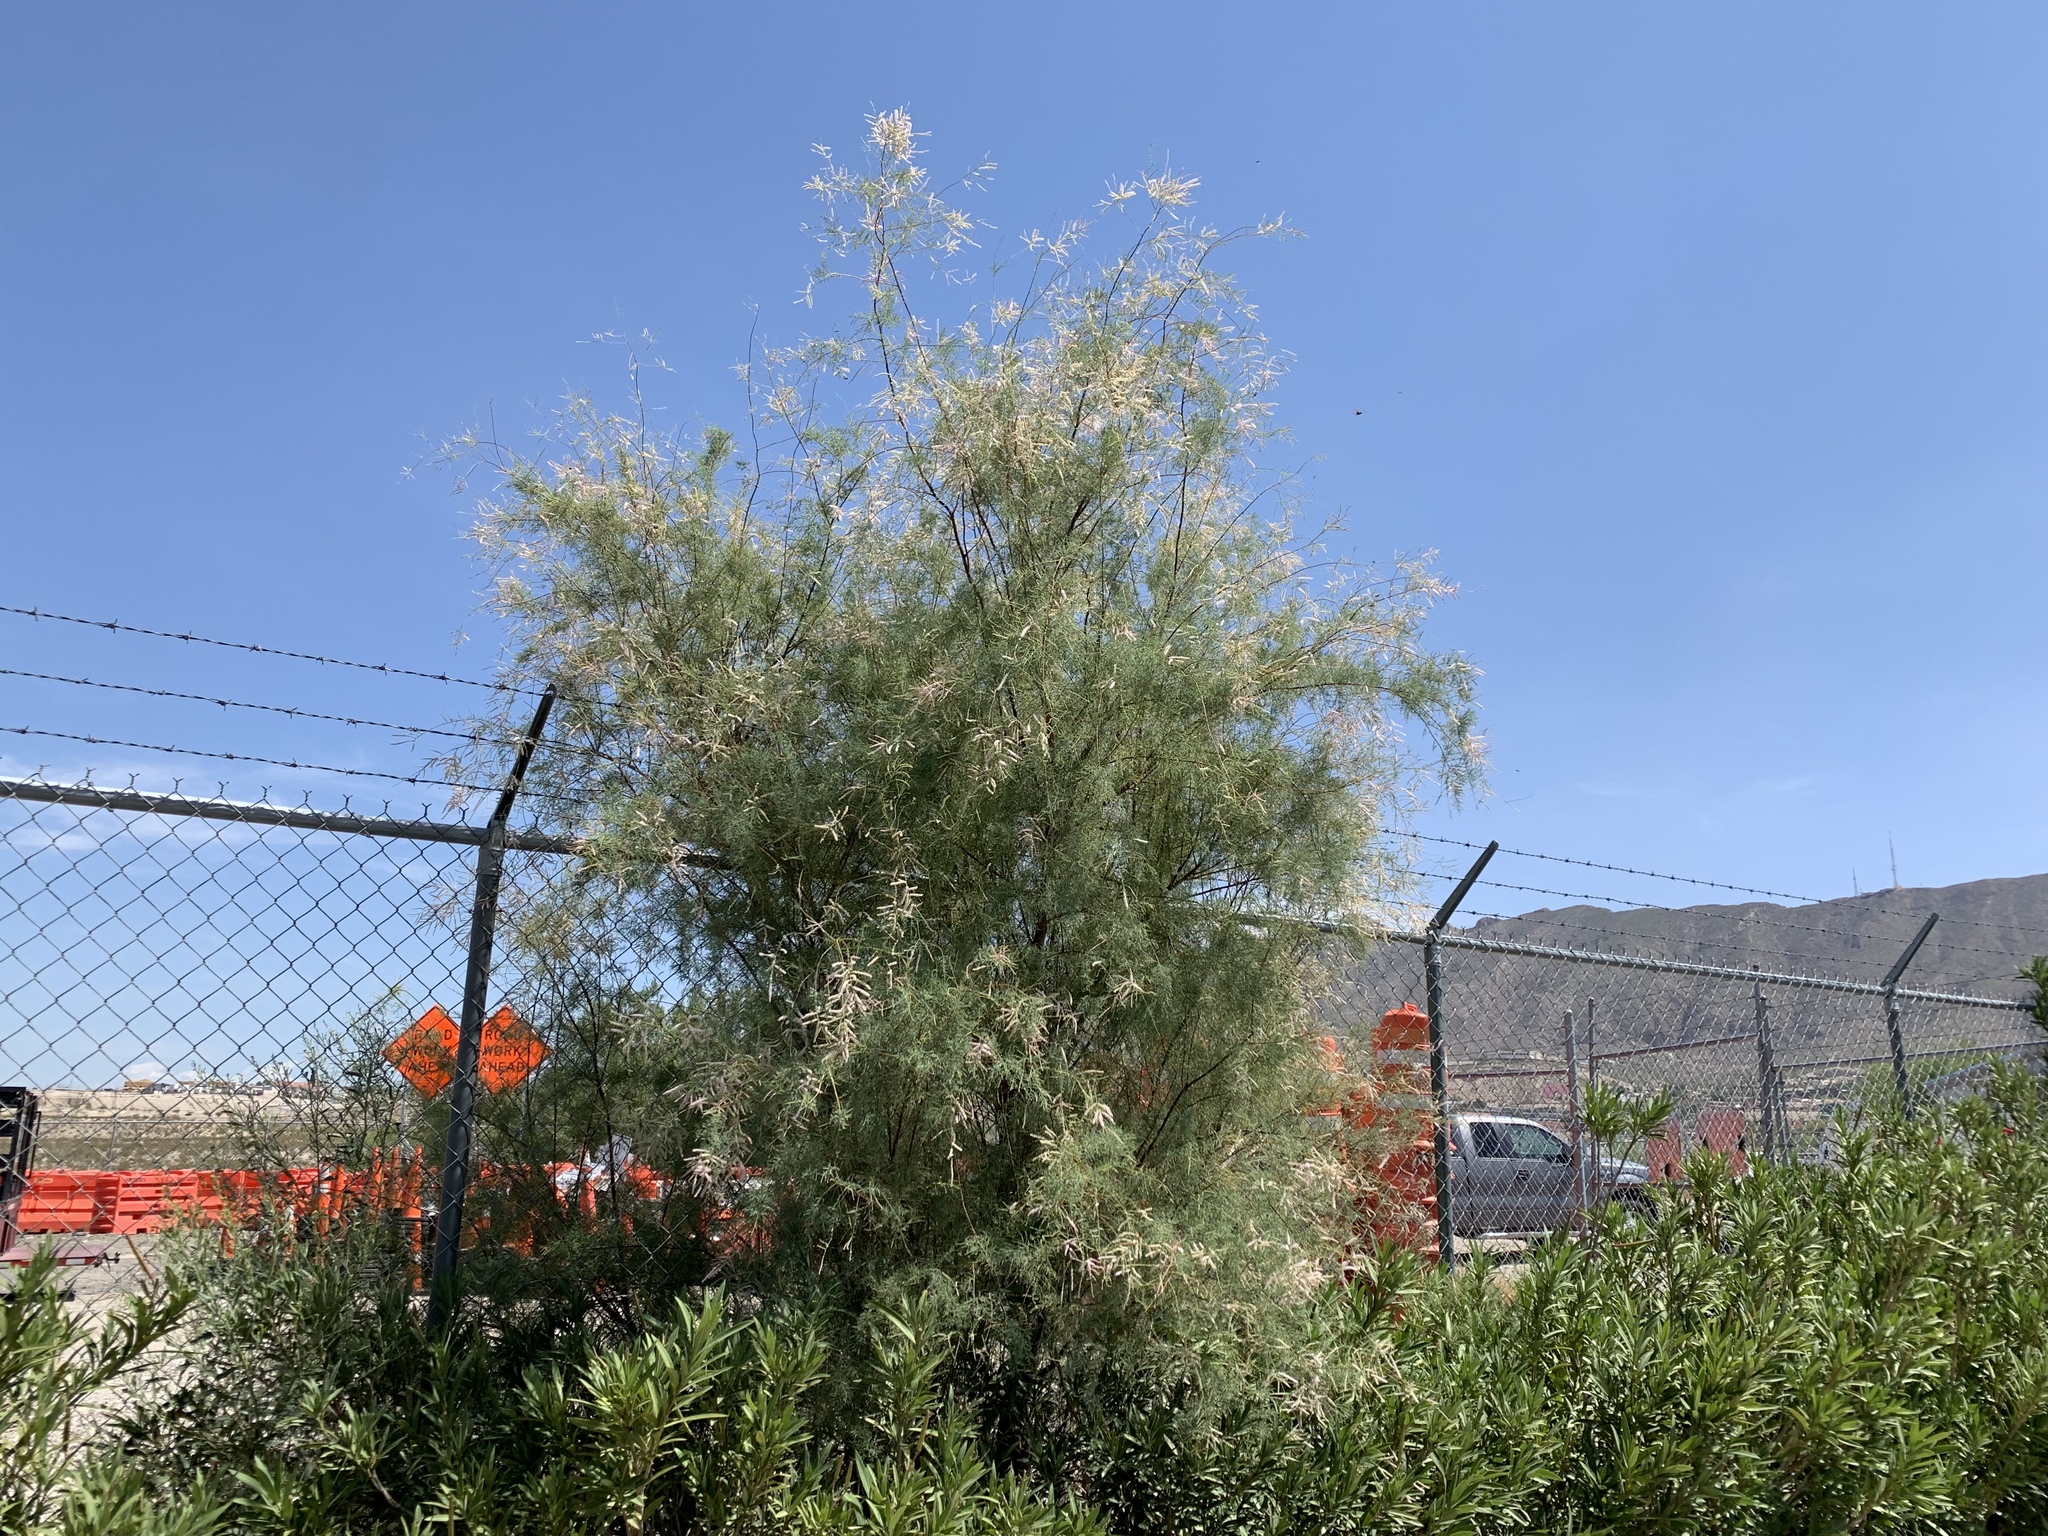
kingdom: Plantae
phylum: Tracheophyta
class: Magnoliopsida
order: Caryophyllales
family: Tamaricaceae
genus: Tamarix
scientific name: Tamarix chinensis
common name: Chinese tamarisk
